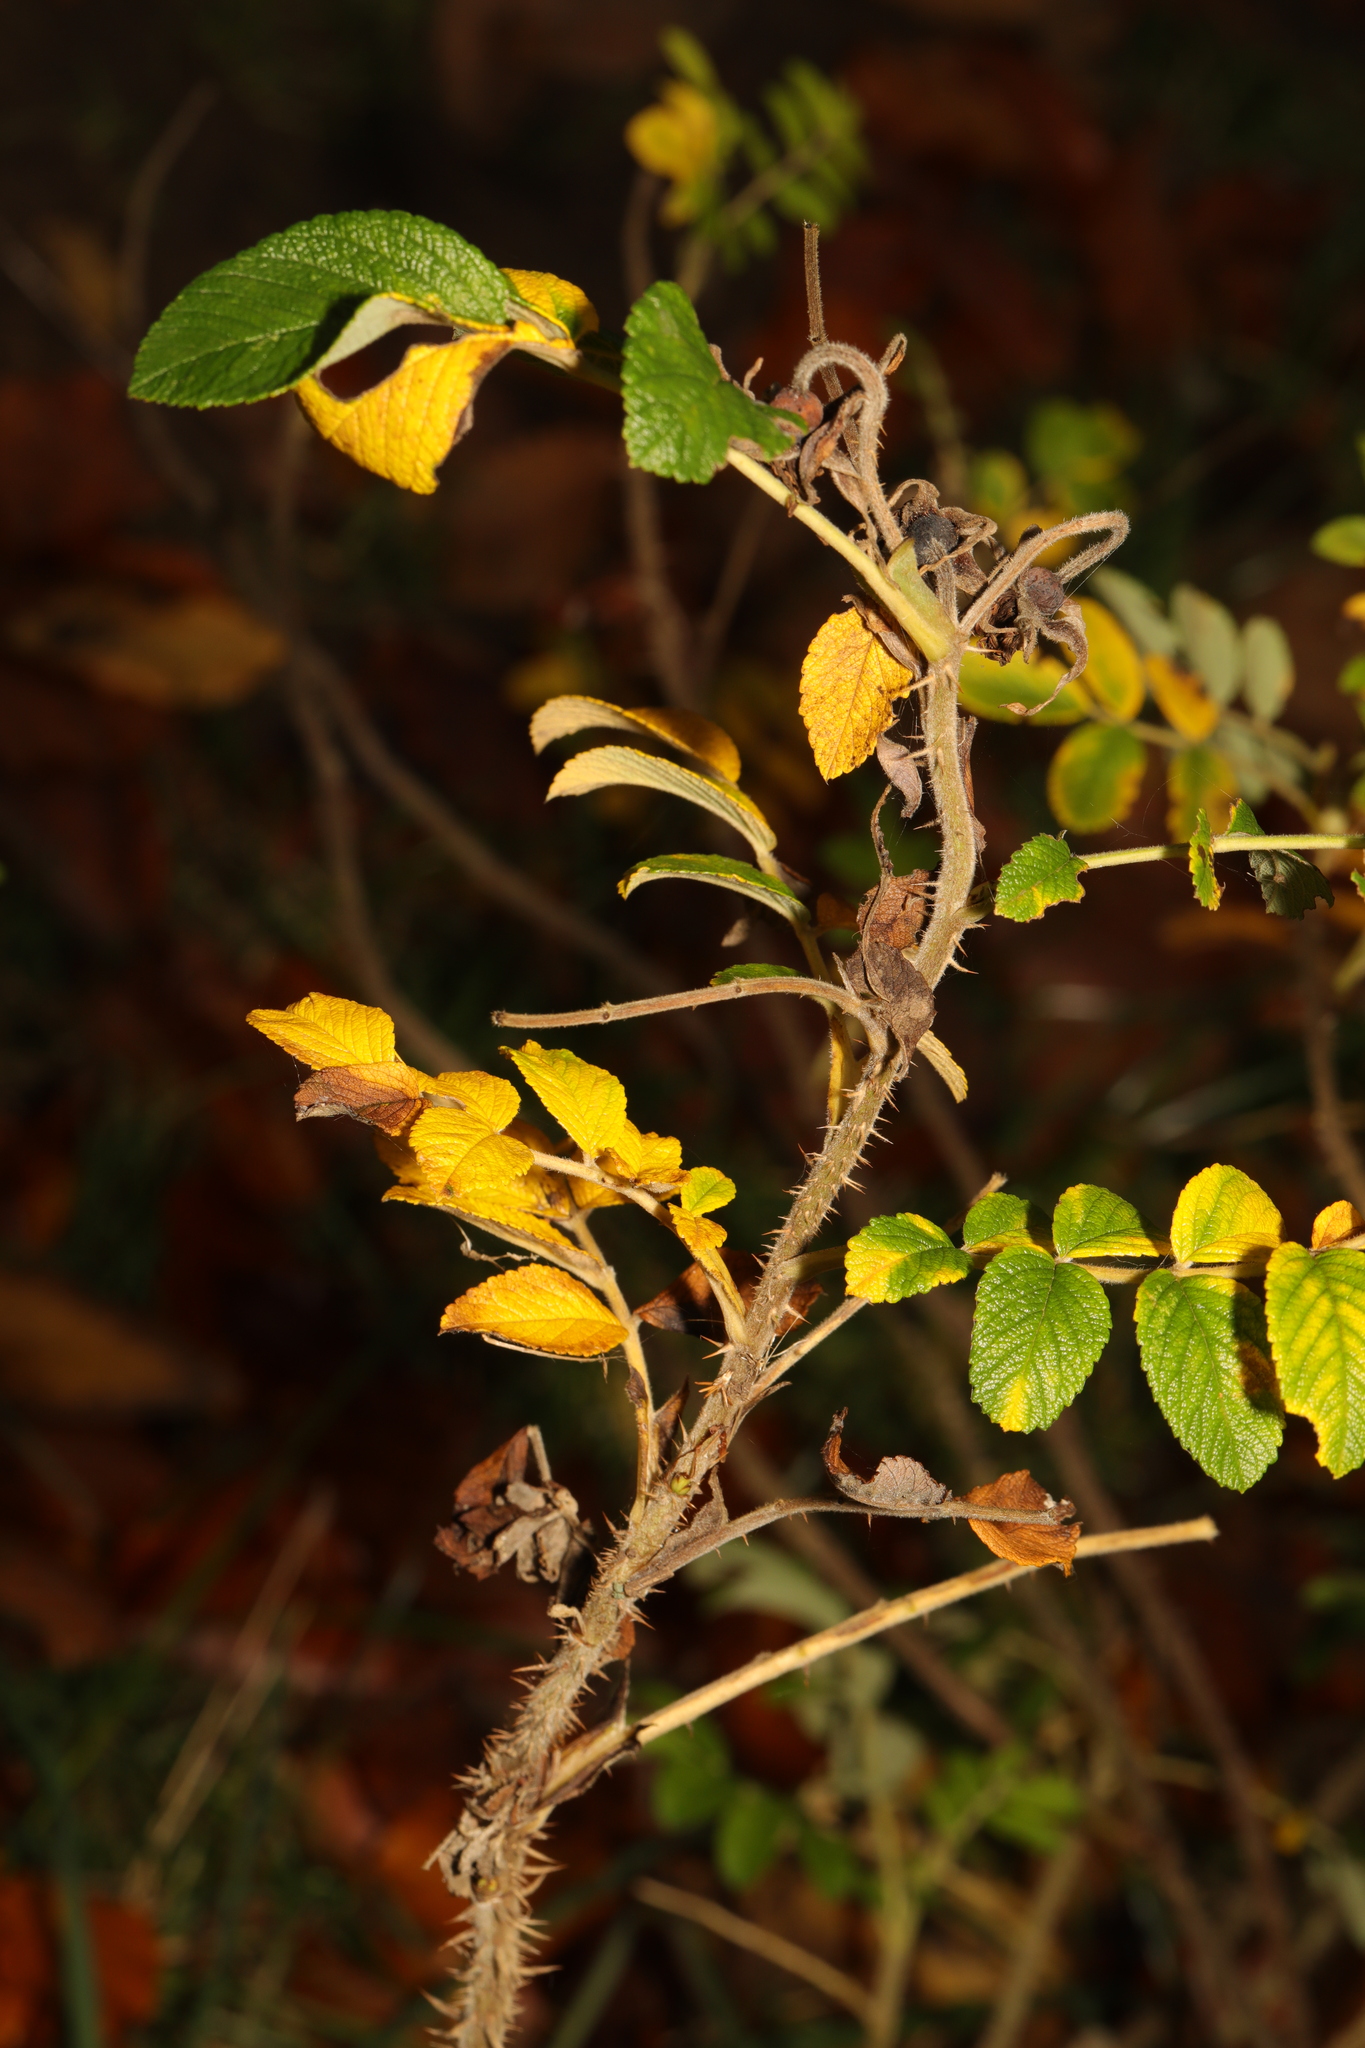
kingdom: Plantae
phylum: Tracheophyta
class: Magnoliopsida
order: Rosales
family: Rosaceae
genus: Rosa
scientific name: Rosa spinosissima
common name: Burnet rose
